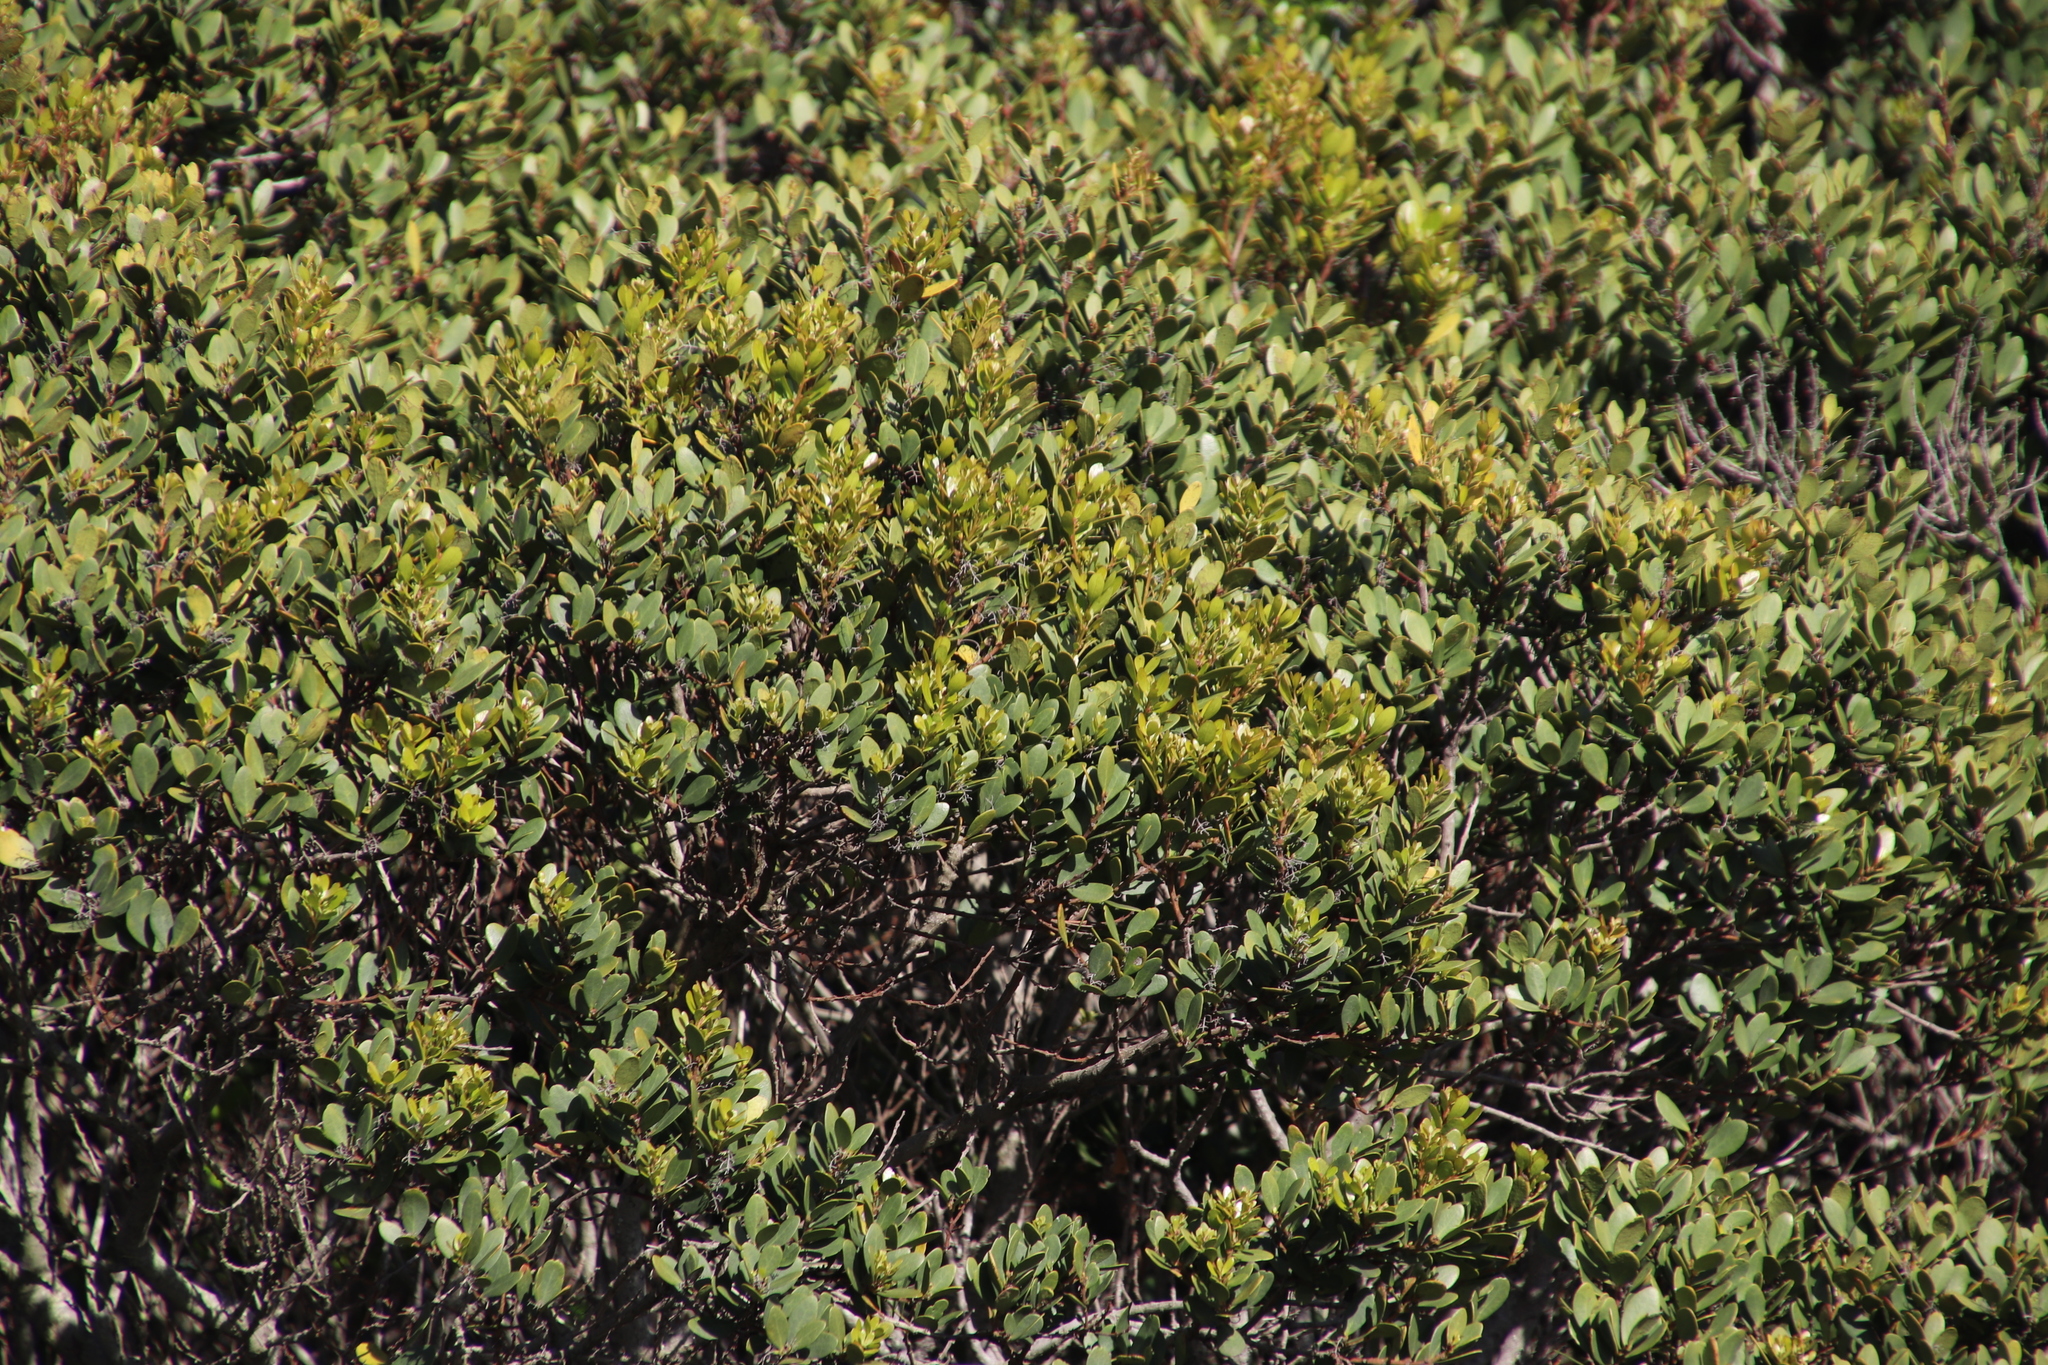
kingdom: Plantae
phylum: Tracheophyta
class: Magnoliopsida
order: Ericales
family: Ebenaceae
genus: Euclea
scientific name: Euclea racemosa
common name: Dune guarri
